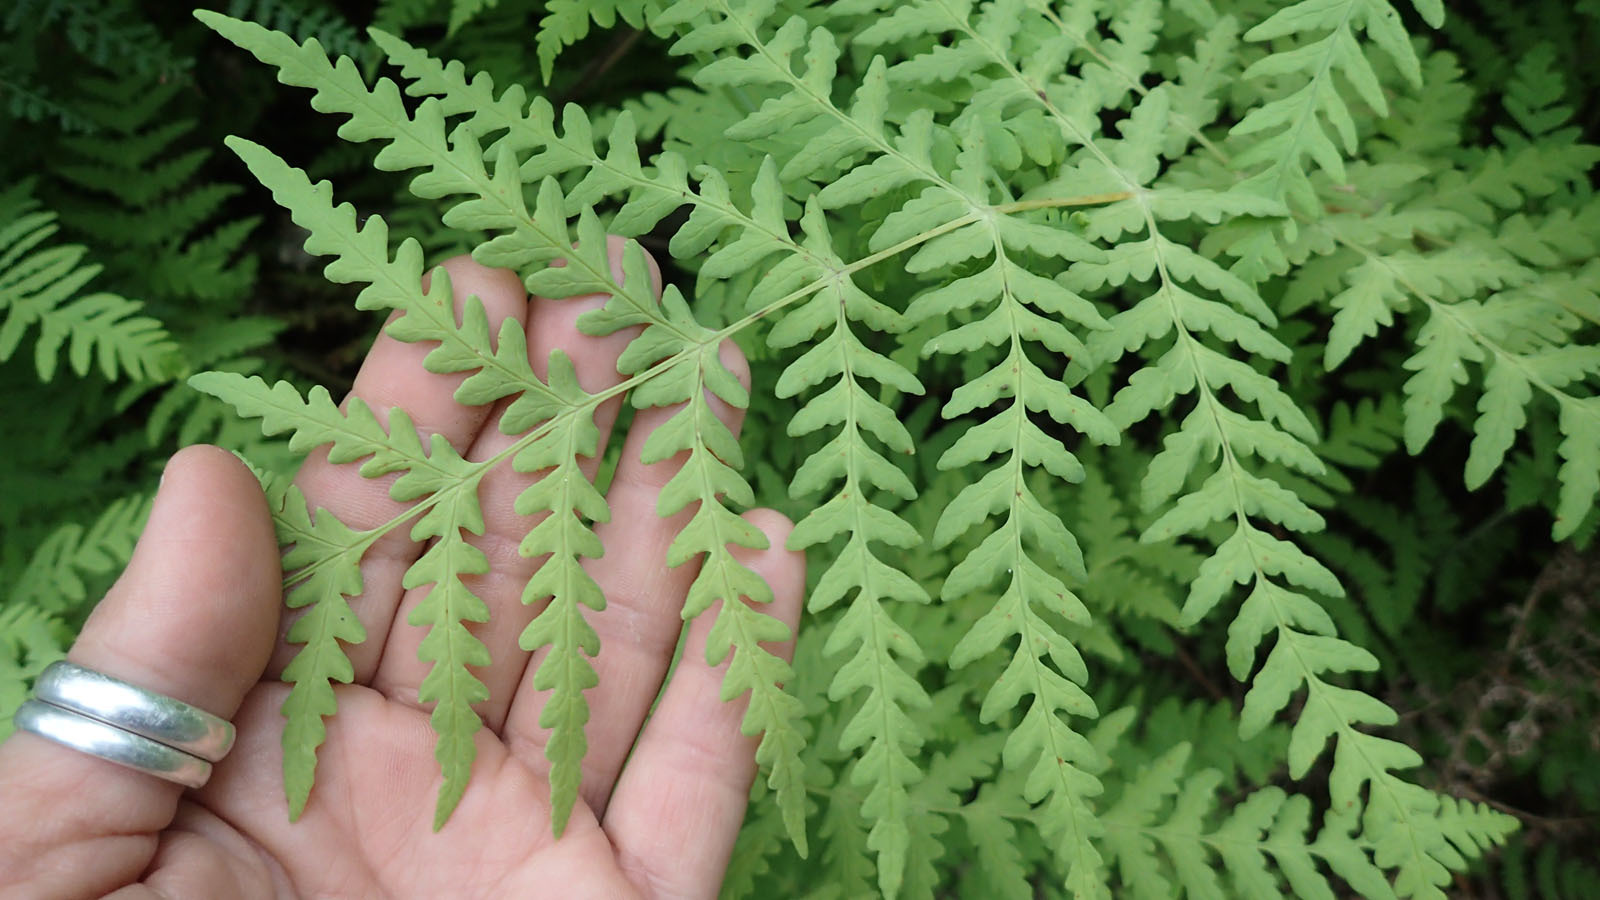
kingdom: Plantae
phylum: Tracheophyta
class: Polypodiopsida
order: Polypodiales
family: Dennstaedtiaceae
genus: Histiopteris
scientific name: Histiopteris incisa
